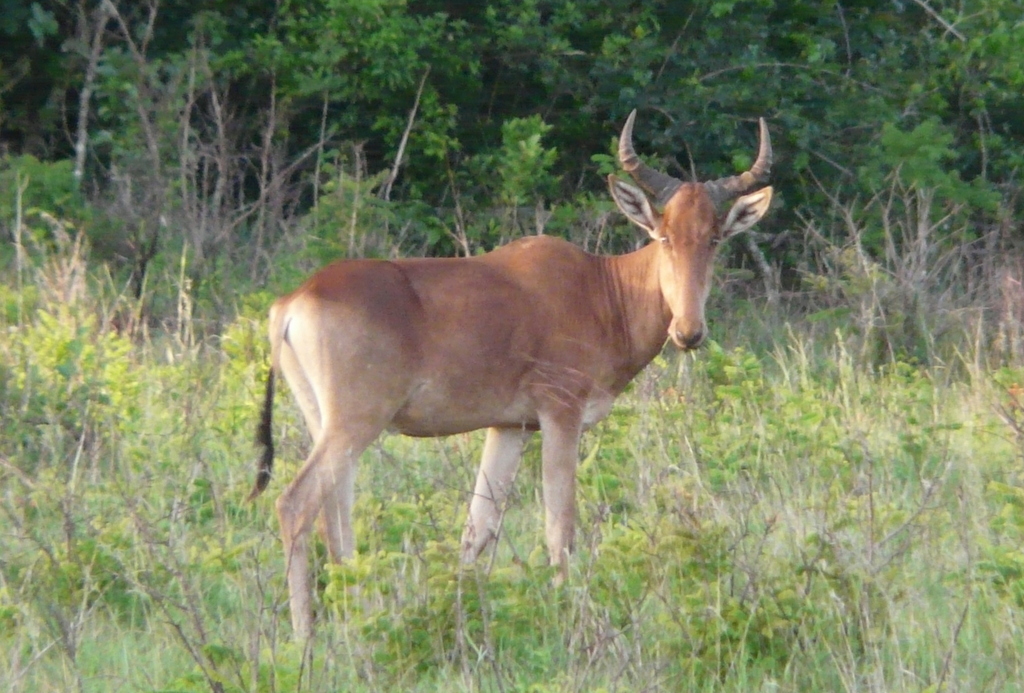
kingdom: Animalia
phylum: Chordata
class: Mammalia
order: Artiodactyla
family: Bovidae
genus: Alcelaphus
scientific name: Alcelaphus buselaphus
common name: Hartebeest
